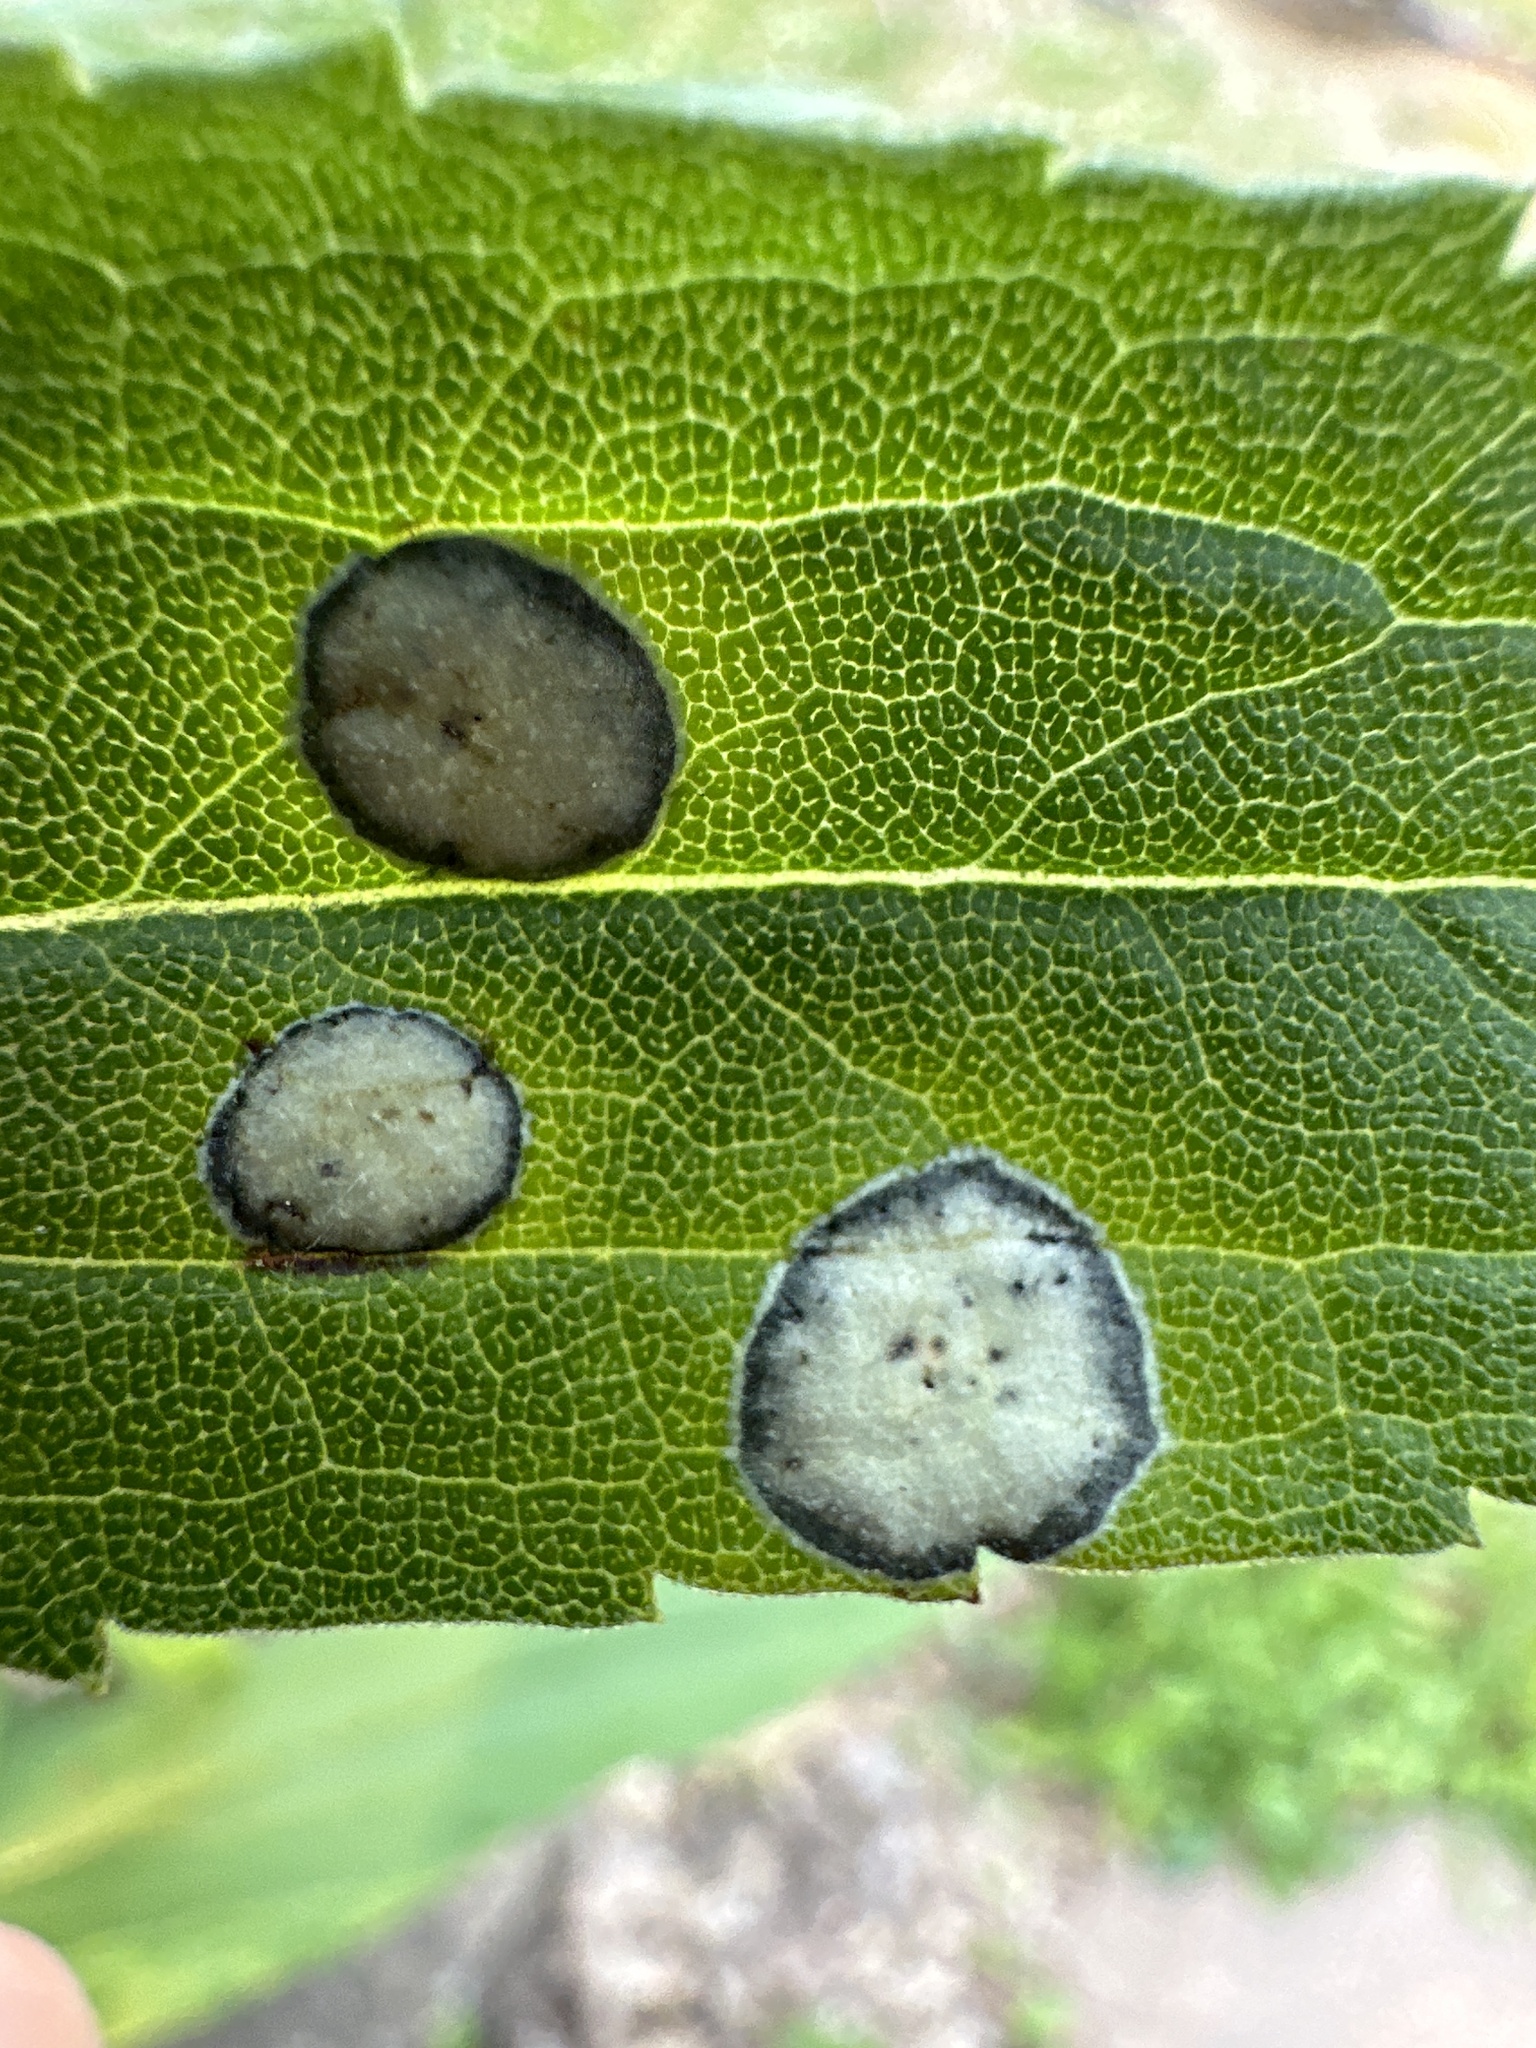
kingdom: Animalia
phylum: Arthropoda
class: Insecta
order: Diptera
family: Cecidomyiidae
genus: Asteromyia
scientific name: Asteromyia carbonifera
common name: Carbonifera goldenrod gall midge
